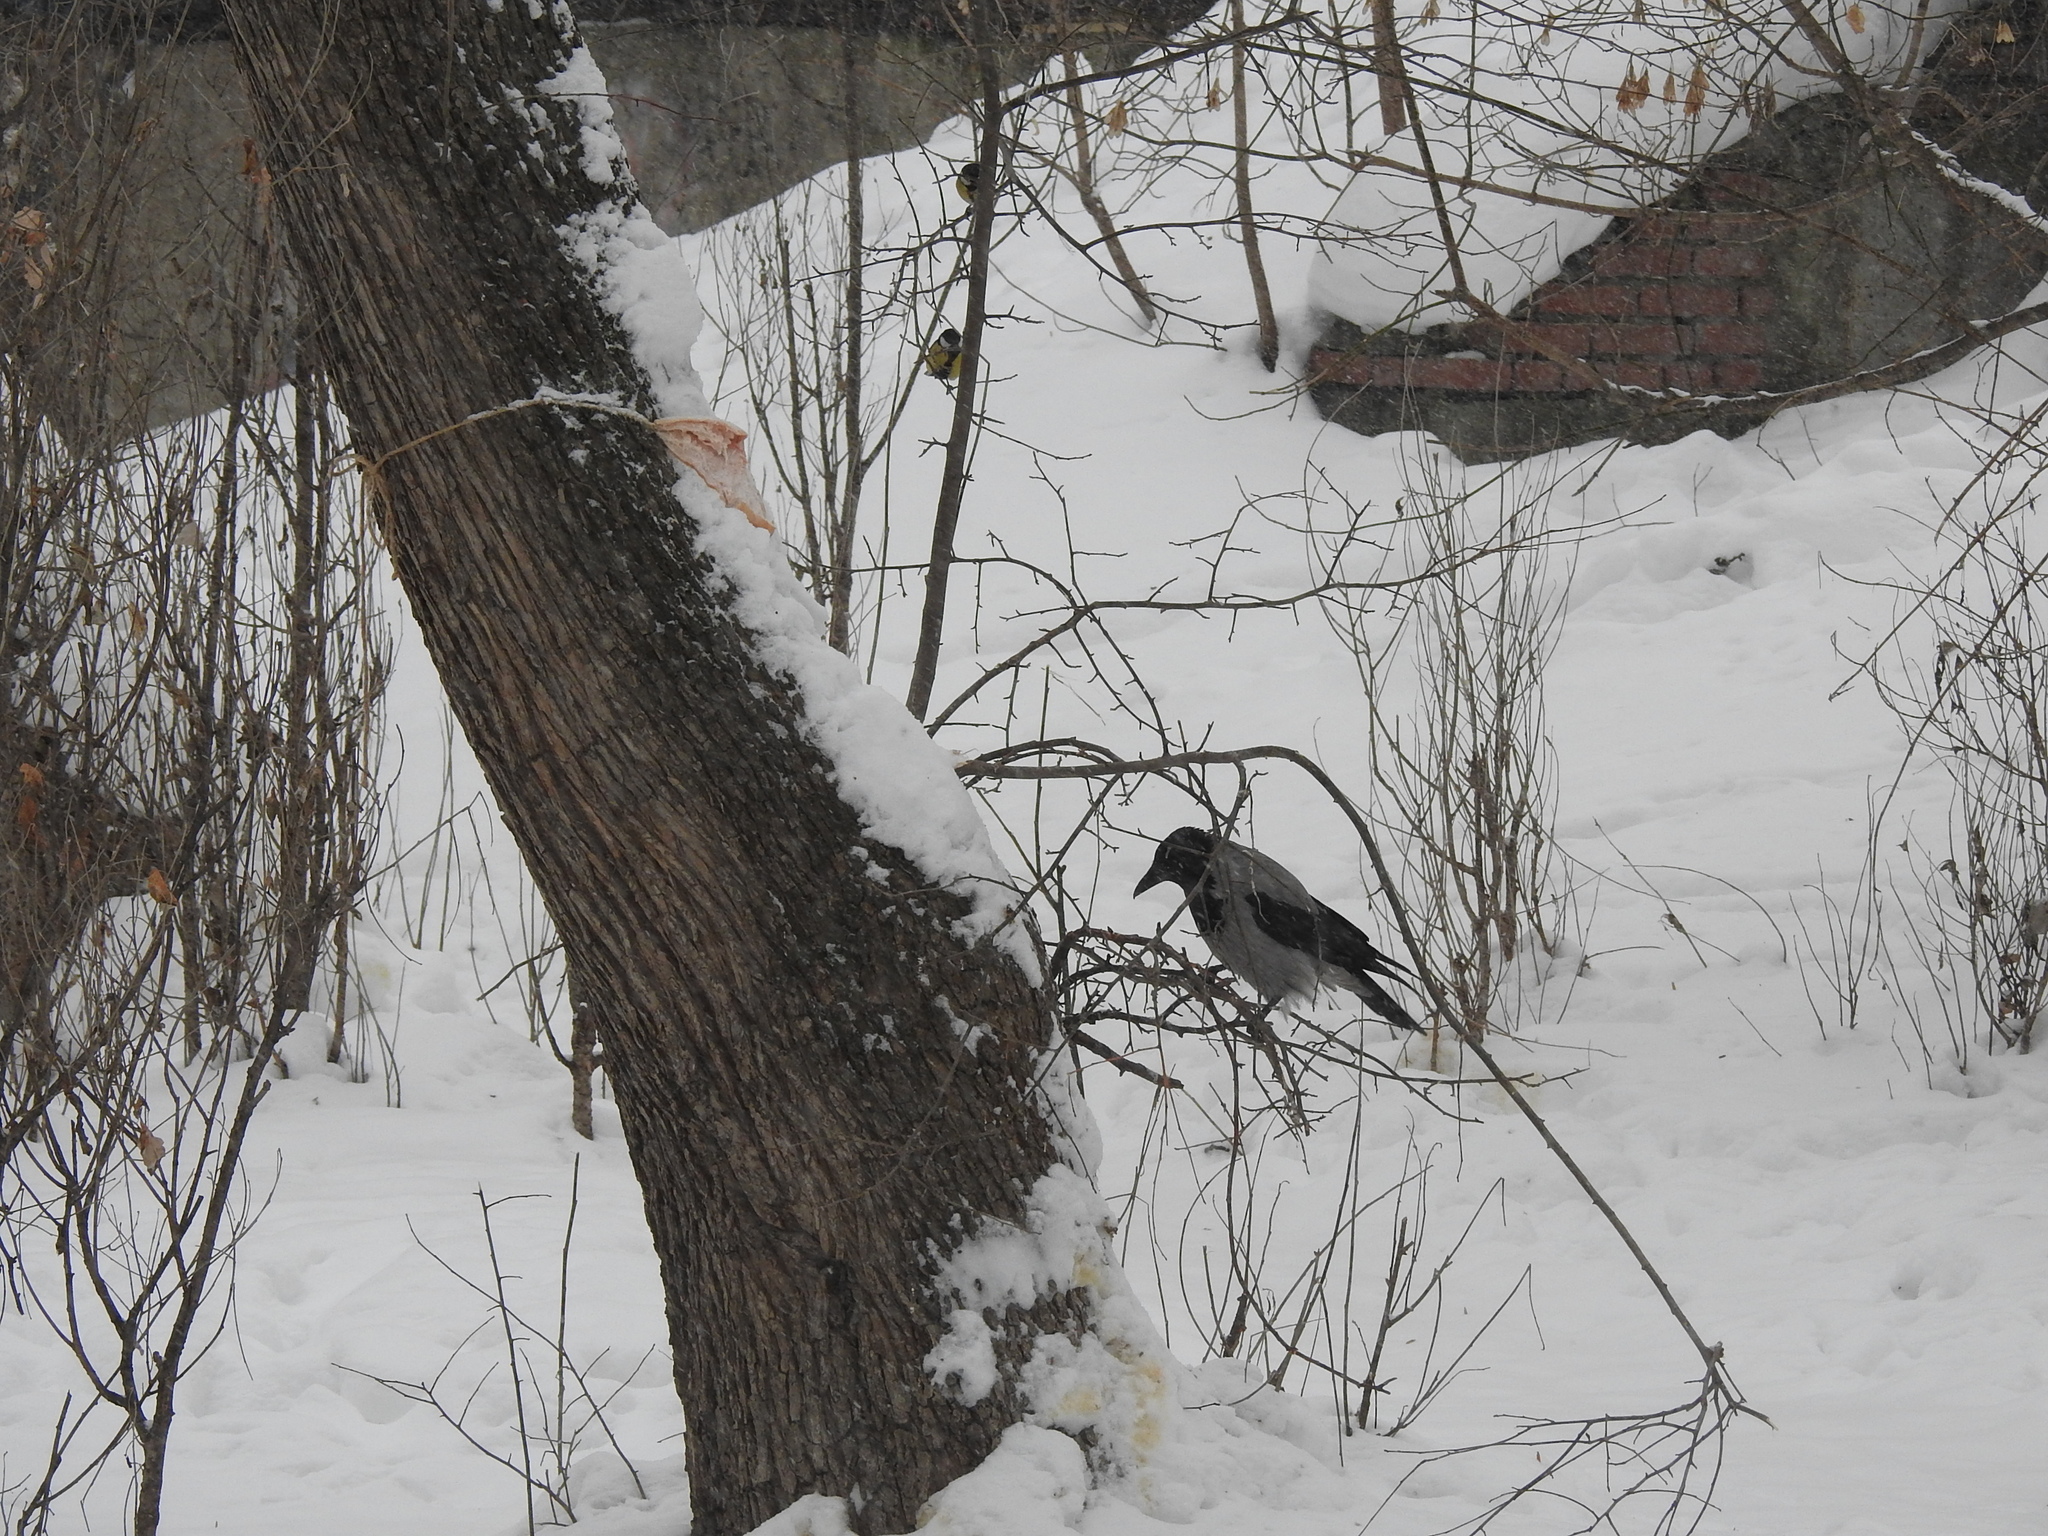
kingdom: Animalia
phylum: Chordata
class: Aves
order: Passeriformes
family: Corvidae
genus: Corvus
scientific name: Corvus cornix
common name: Hooded crow
